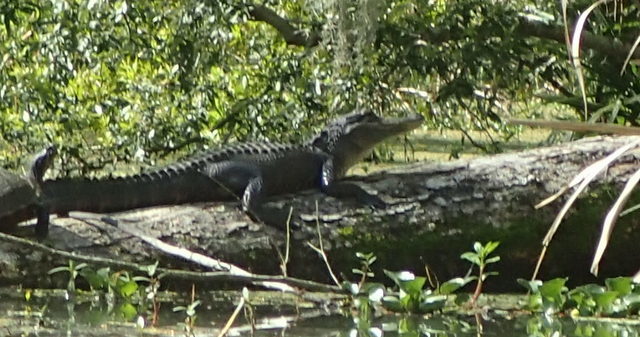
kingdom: Animalia
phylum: Chordata
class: Crocodylia
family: Alligatoridae
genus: Alligator
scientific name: Alligator mississippiensis
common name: American alligator
